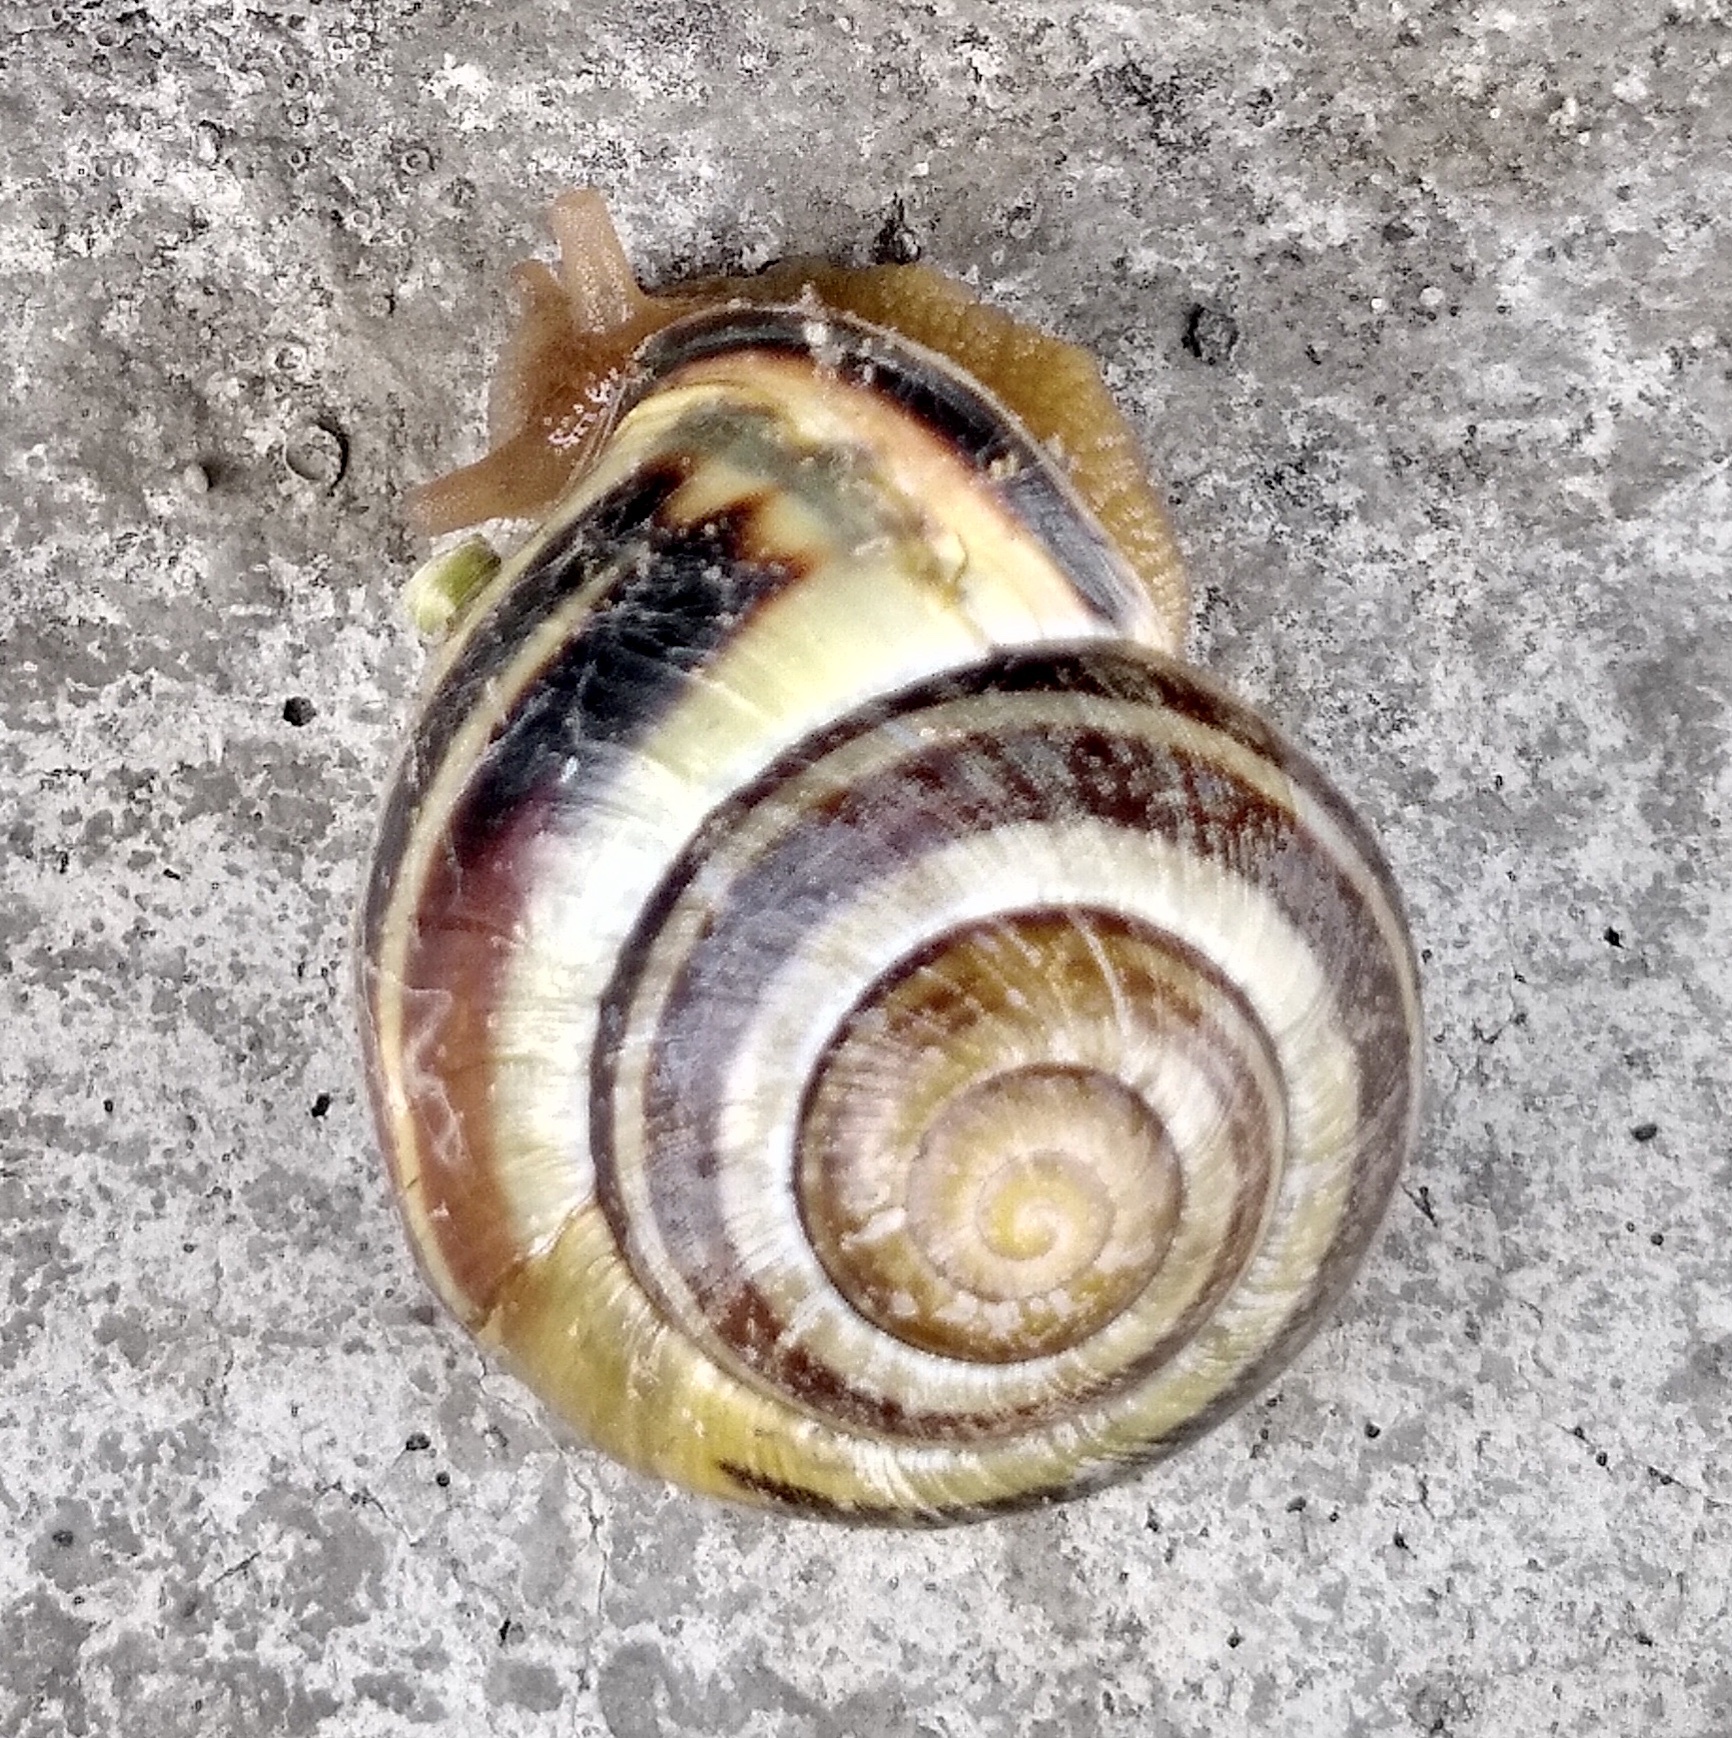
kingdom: Animalia
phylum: Mollusca
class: Gastropoda
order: Stylommatophora
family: Helicidae
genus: Cepaea
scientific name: Cepaea nemoralis
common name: Grovesnail
